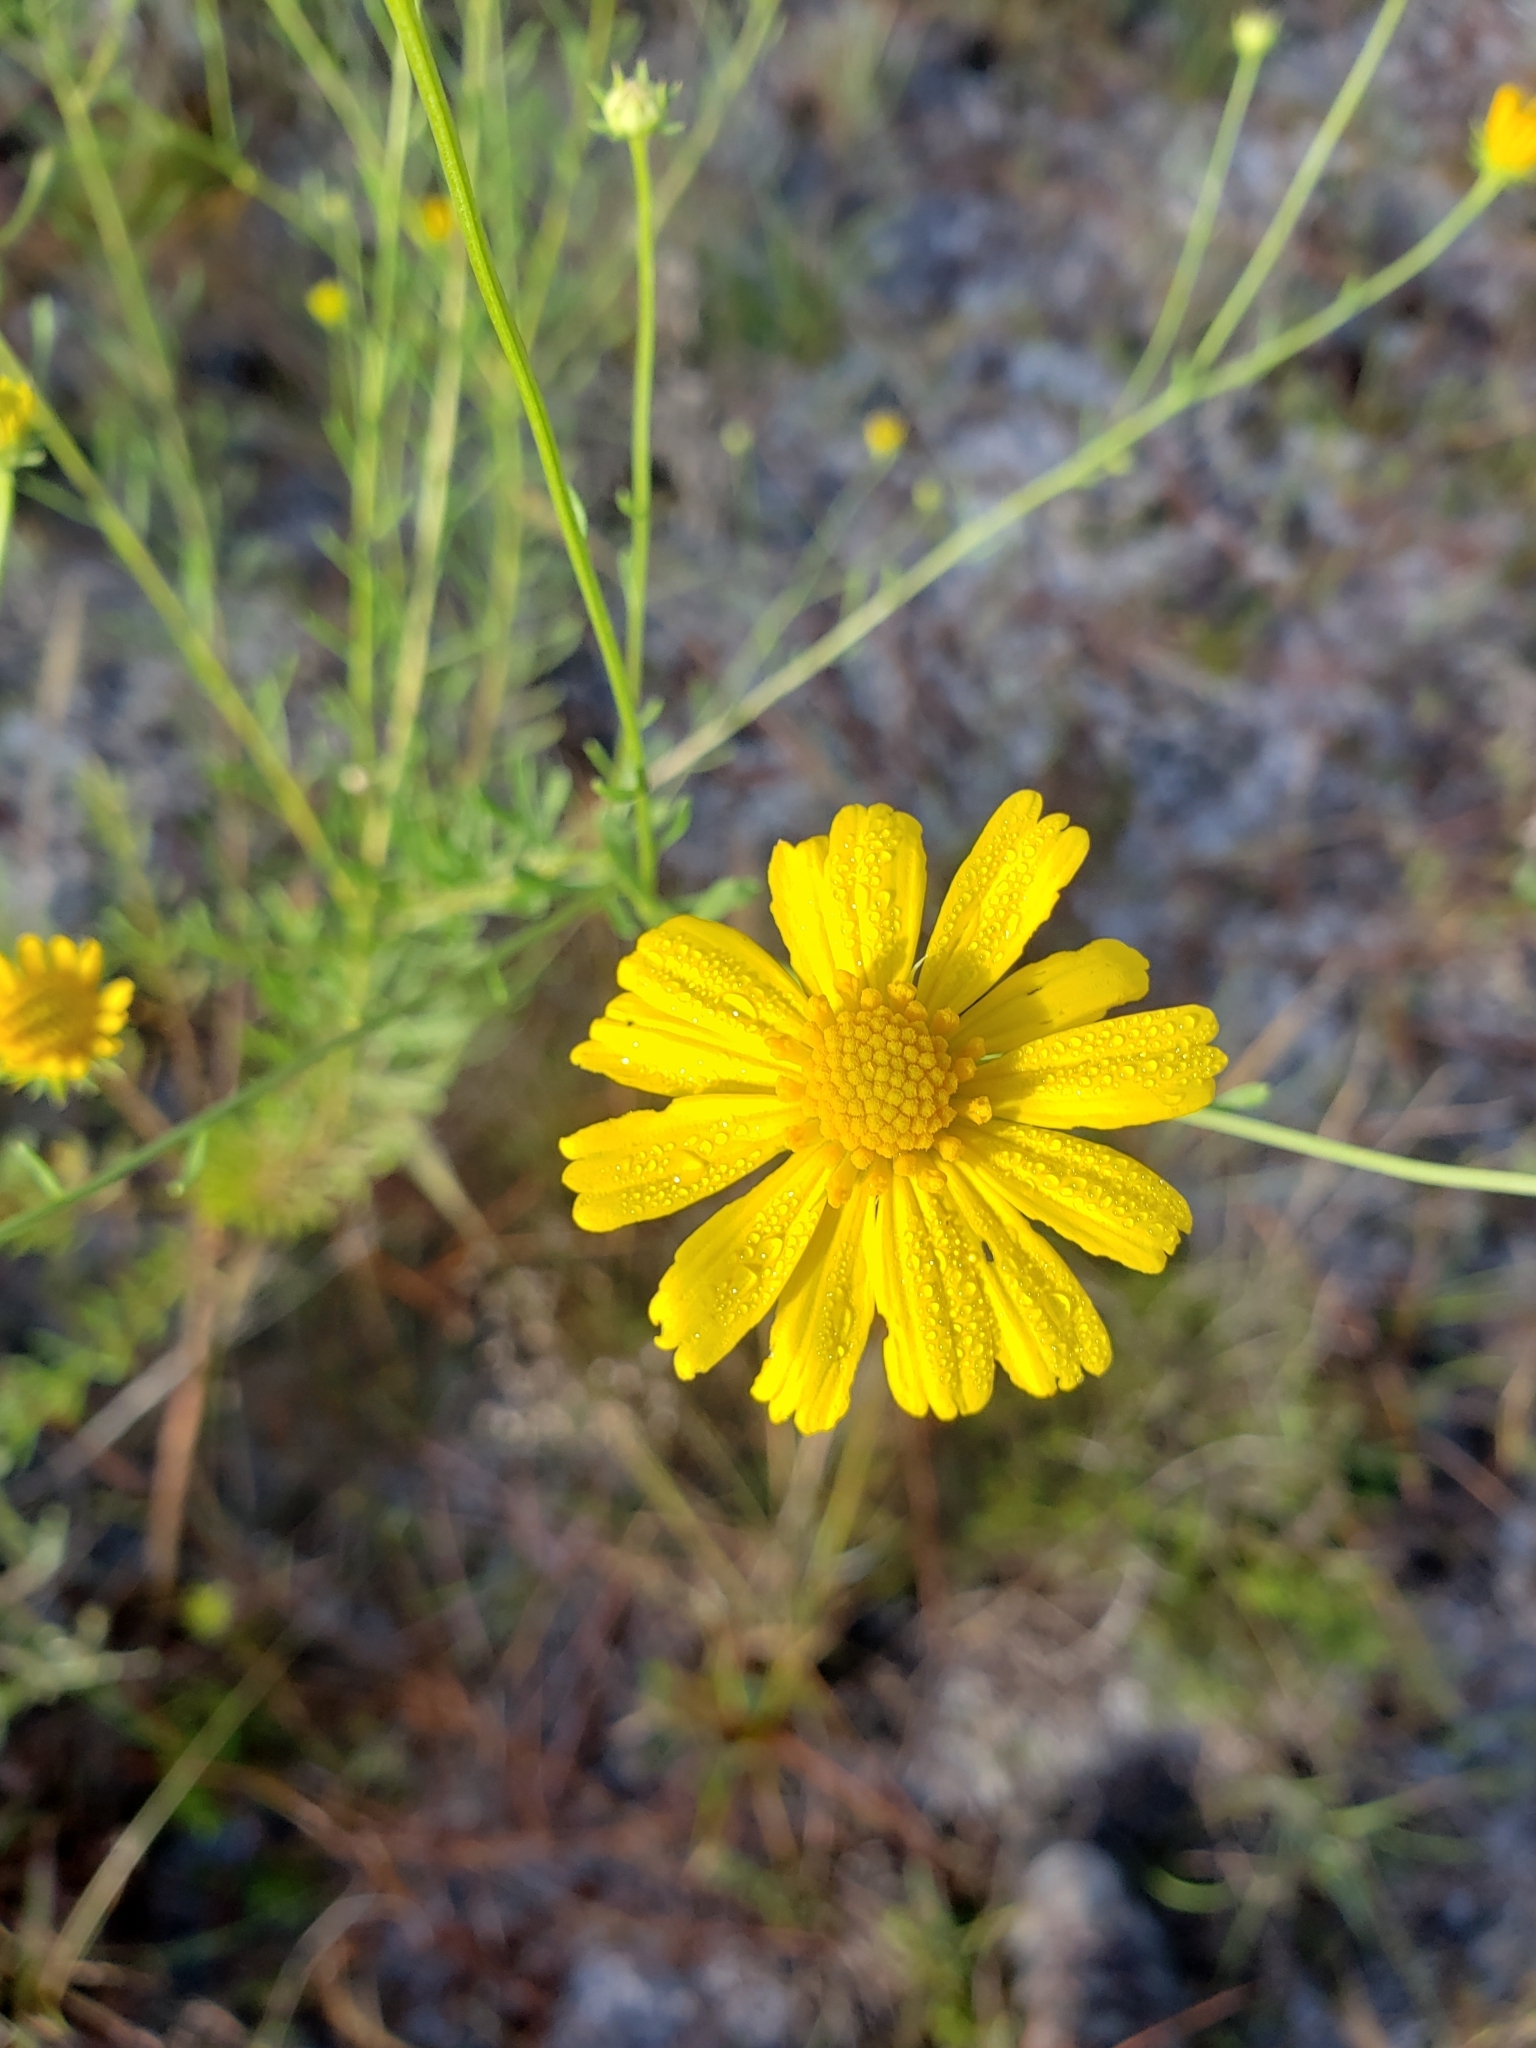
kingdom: Plantae
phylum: Tracheophyta
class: Magnoliopsida
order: Asterales
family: Asteraceae
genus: Balduina
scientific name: Balduina angustifolia
